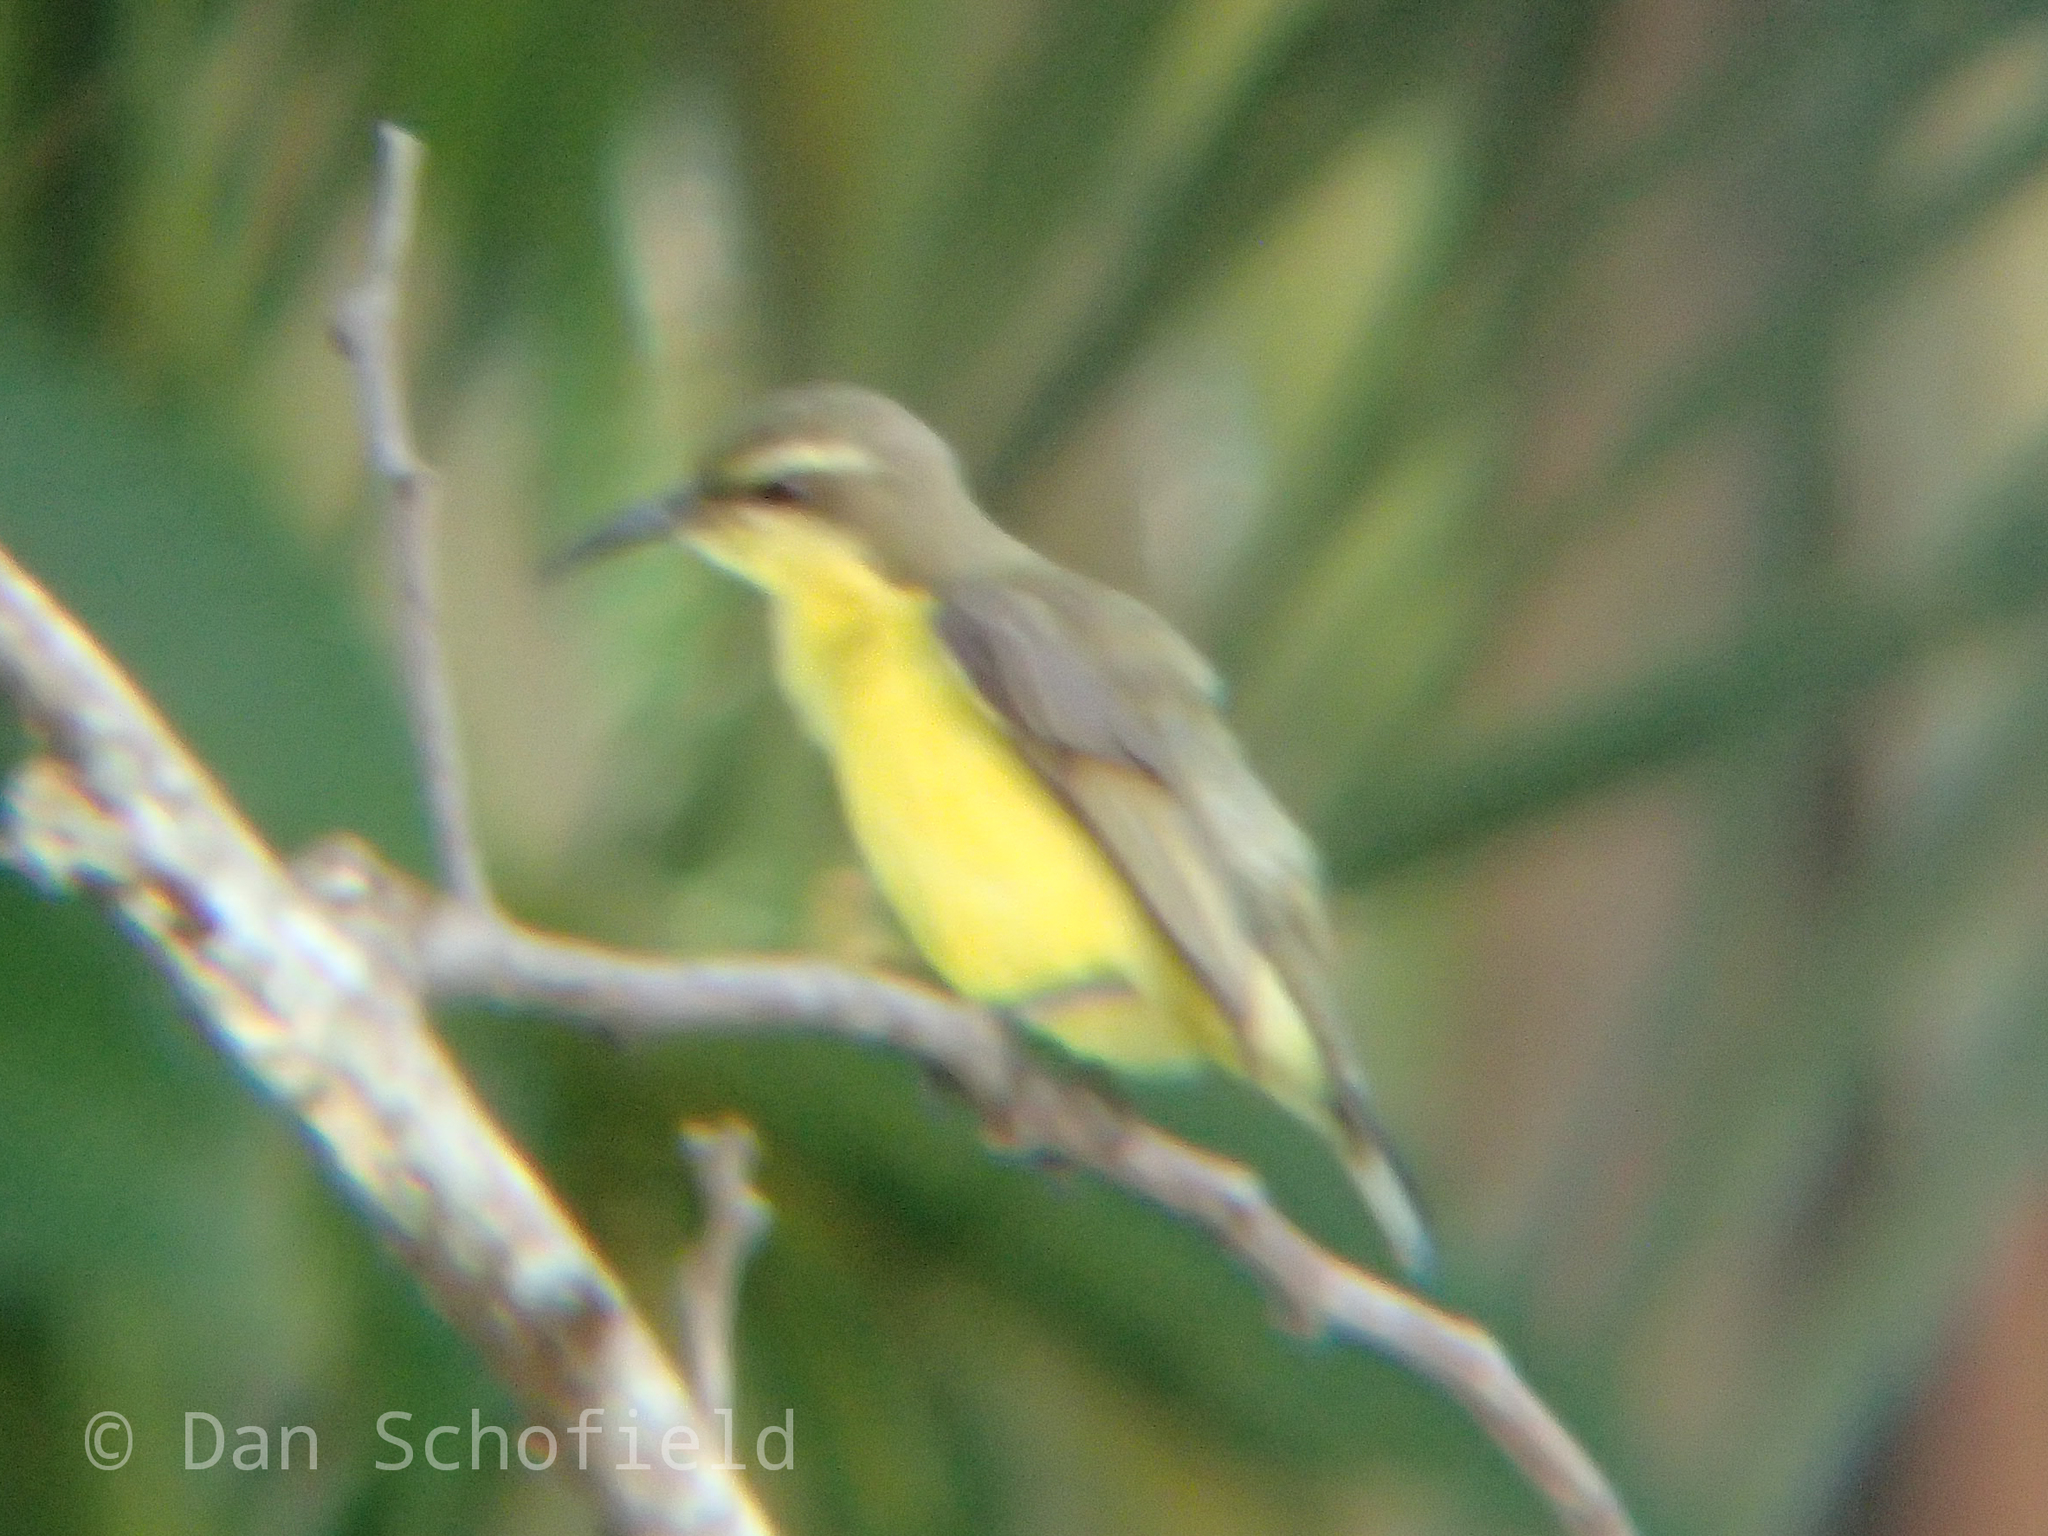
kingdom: Animalia
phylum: Chordata
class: Aves
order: Passeriformes
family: Nectariniidae
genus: Cinnyris
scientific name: Cinnyris
